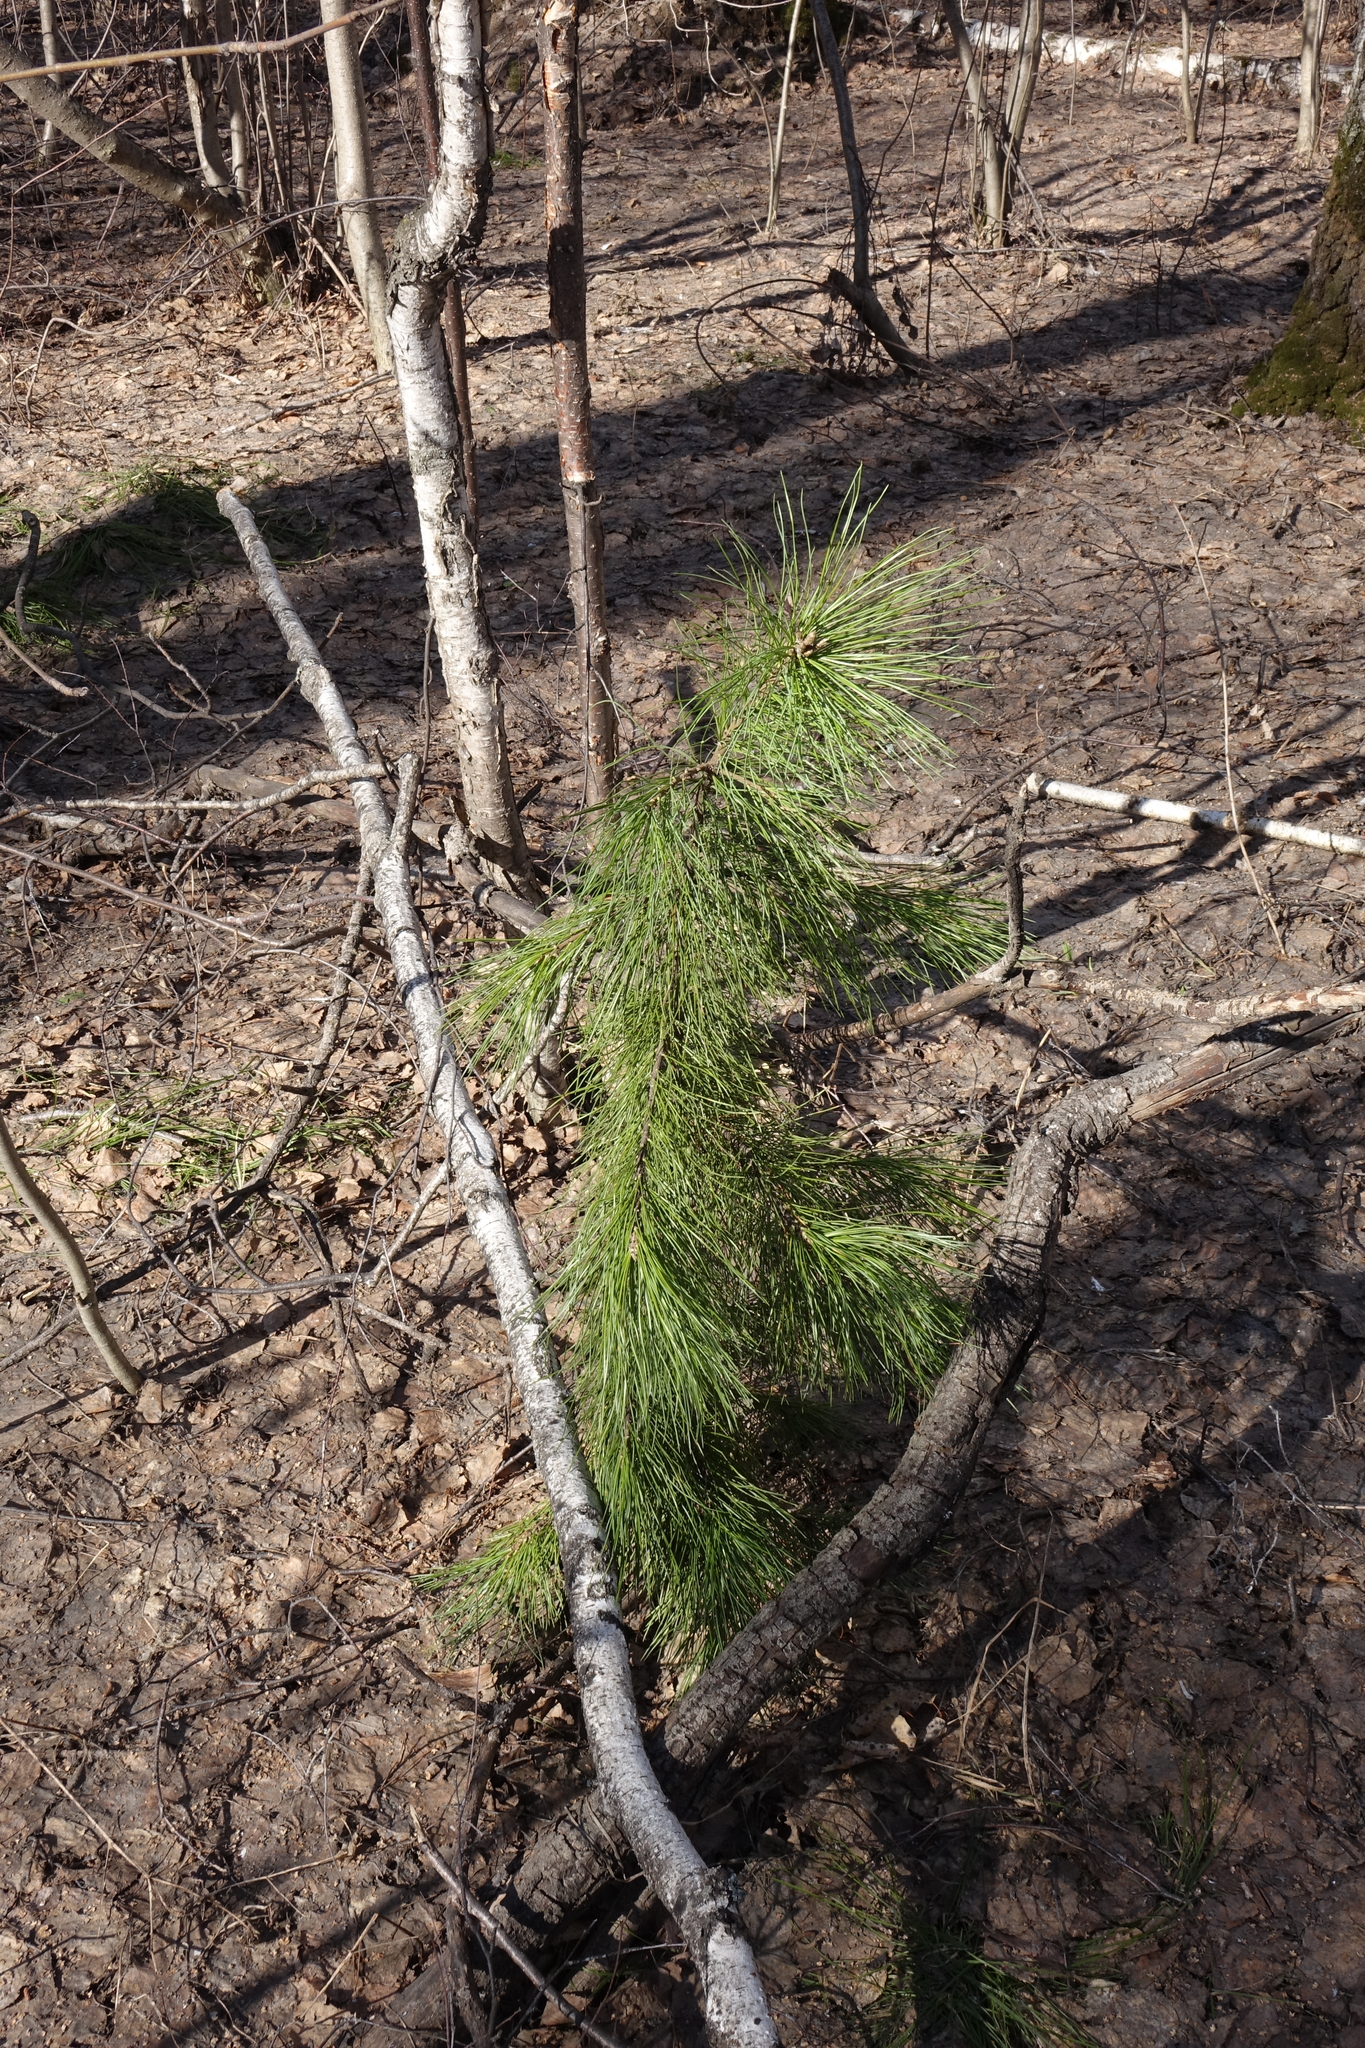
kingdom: Plantae
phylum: Tracheophyta
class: Pinopsida
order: Pinales
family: Pinaceae
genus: Pinus
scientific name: Pinus sibirica
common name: Siberian pine
